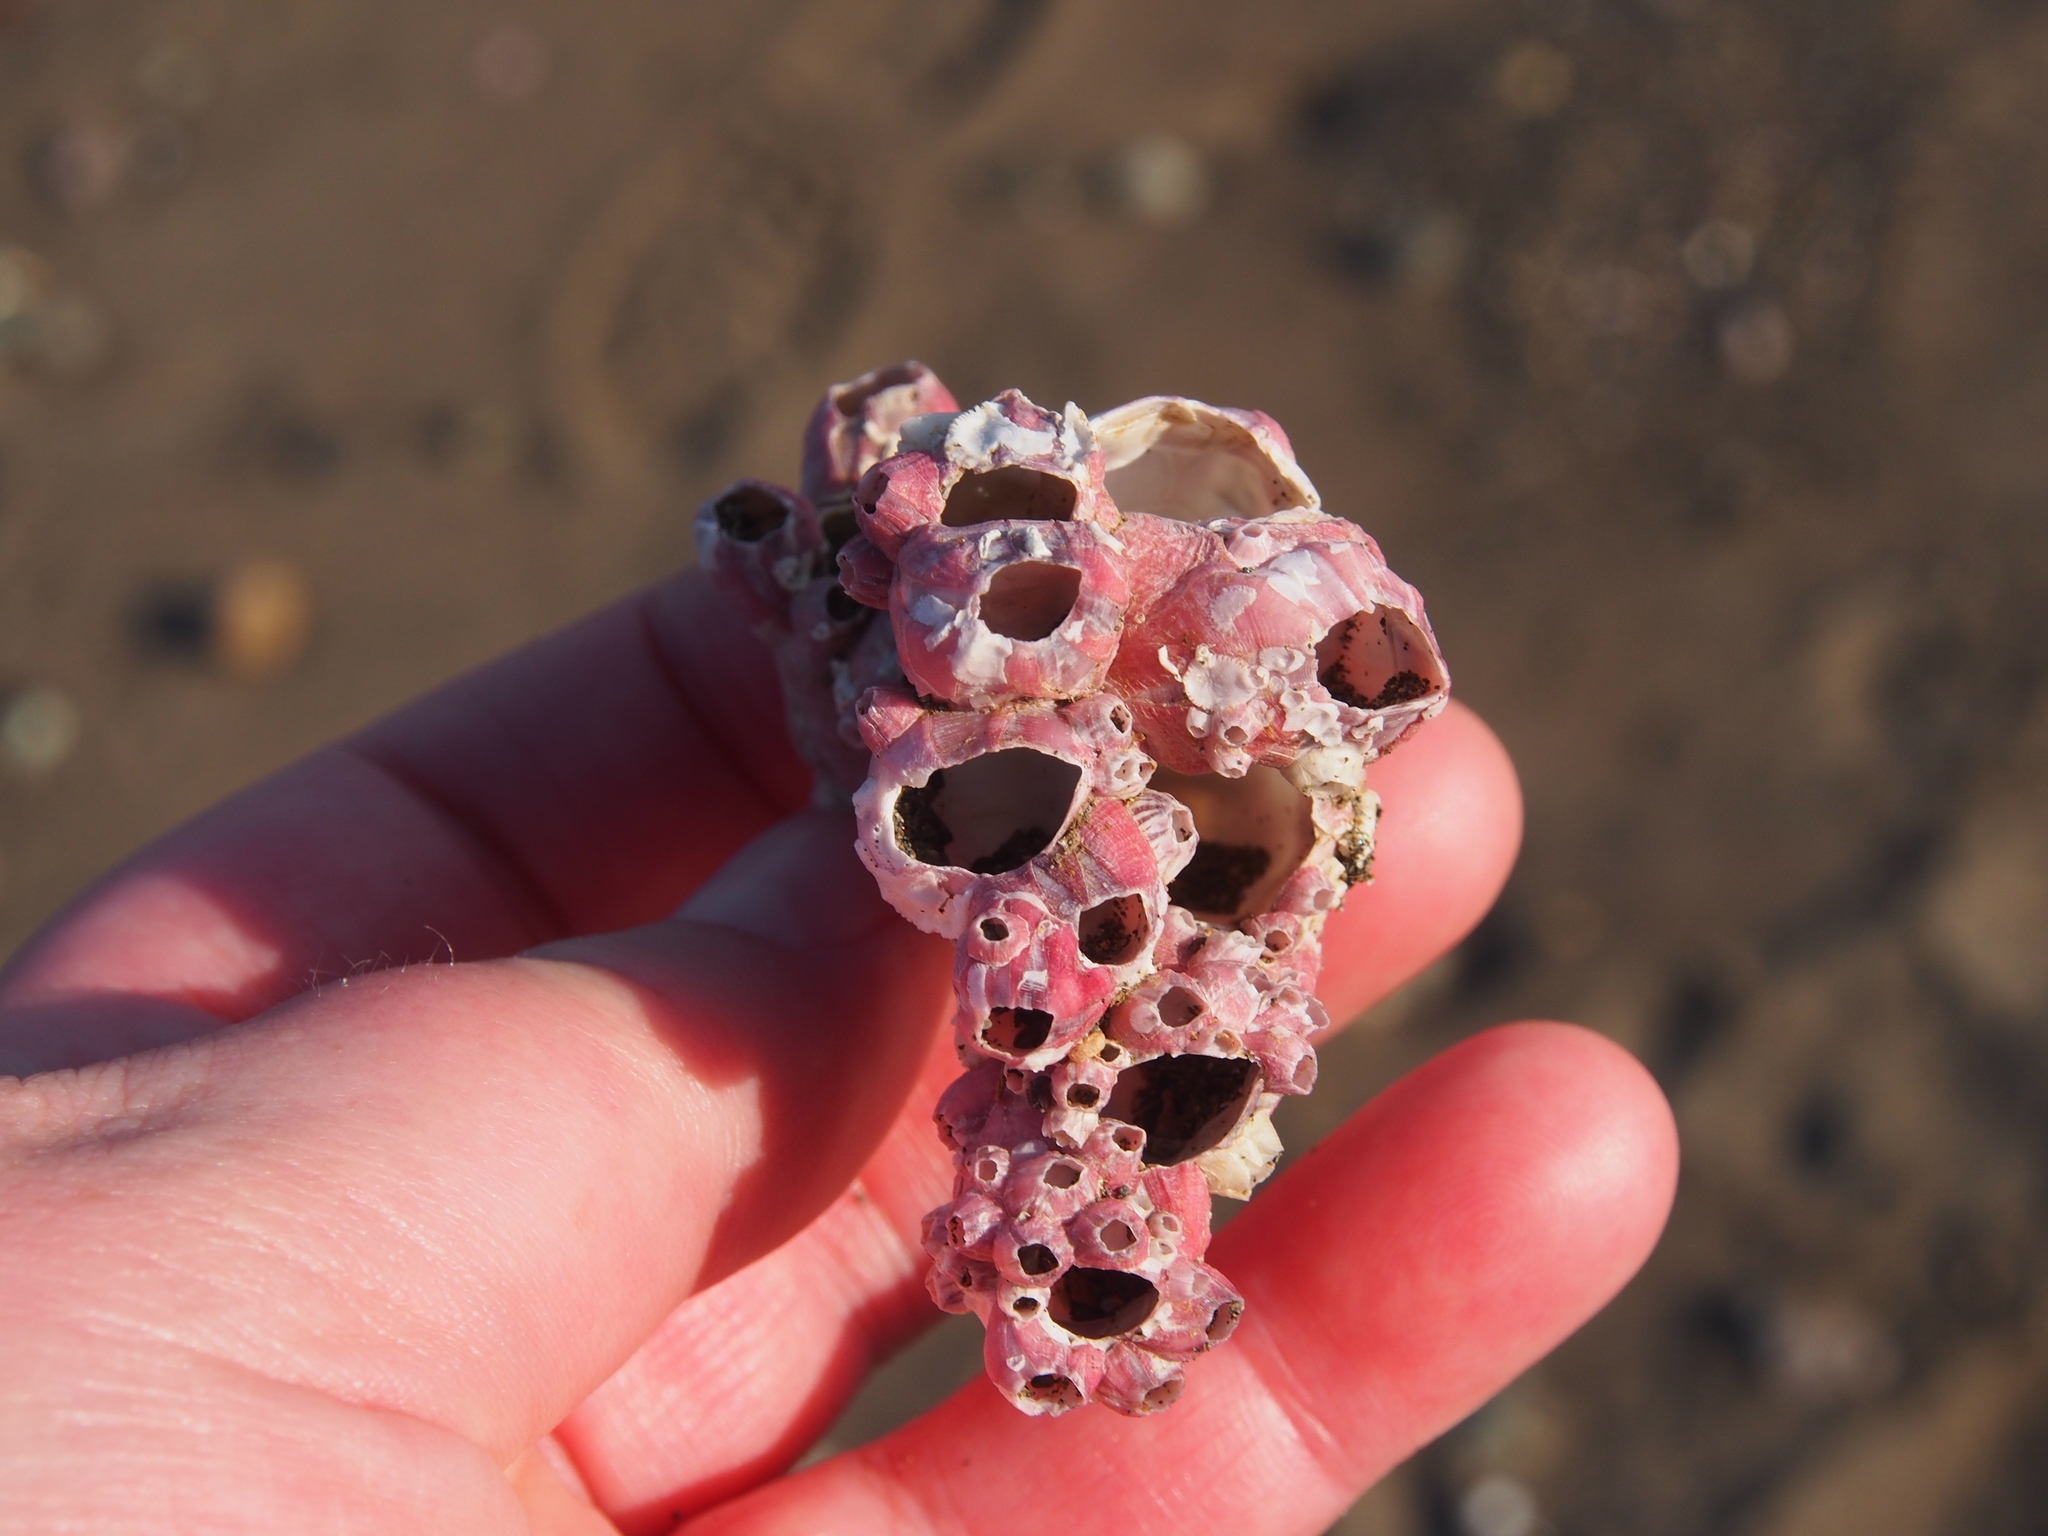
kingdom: Animalia
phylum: Arthropoda
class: Maxillopoda
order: Sessilia
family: Balanidae
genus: Megabalanus
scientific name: Megabalanus coccopoma
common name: Titan acorn barnacle
